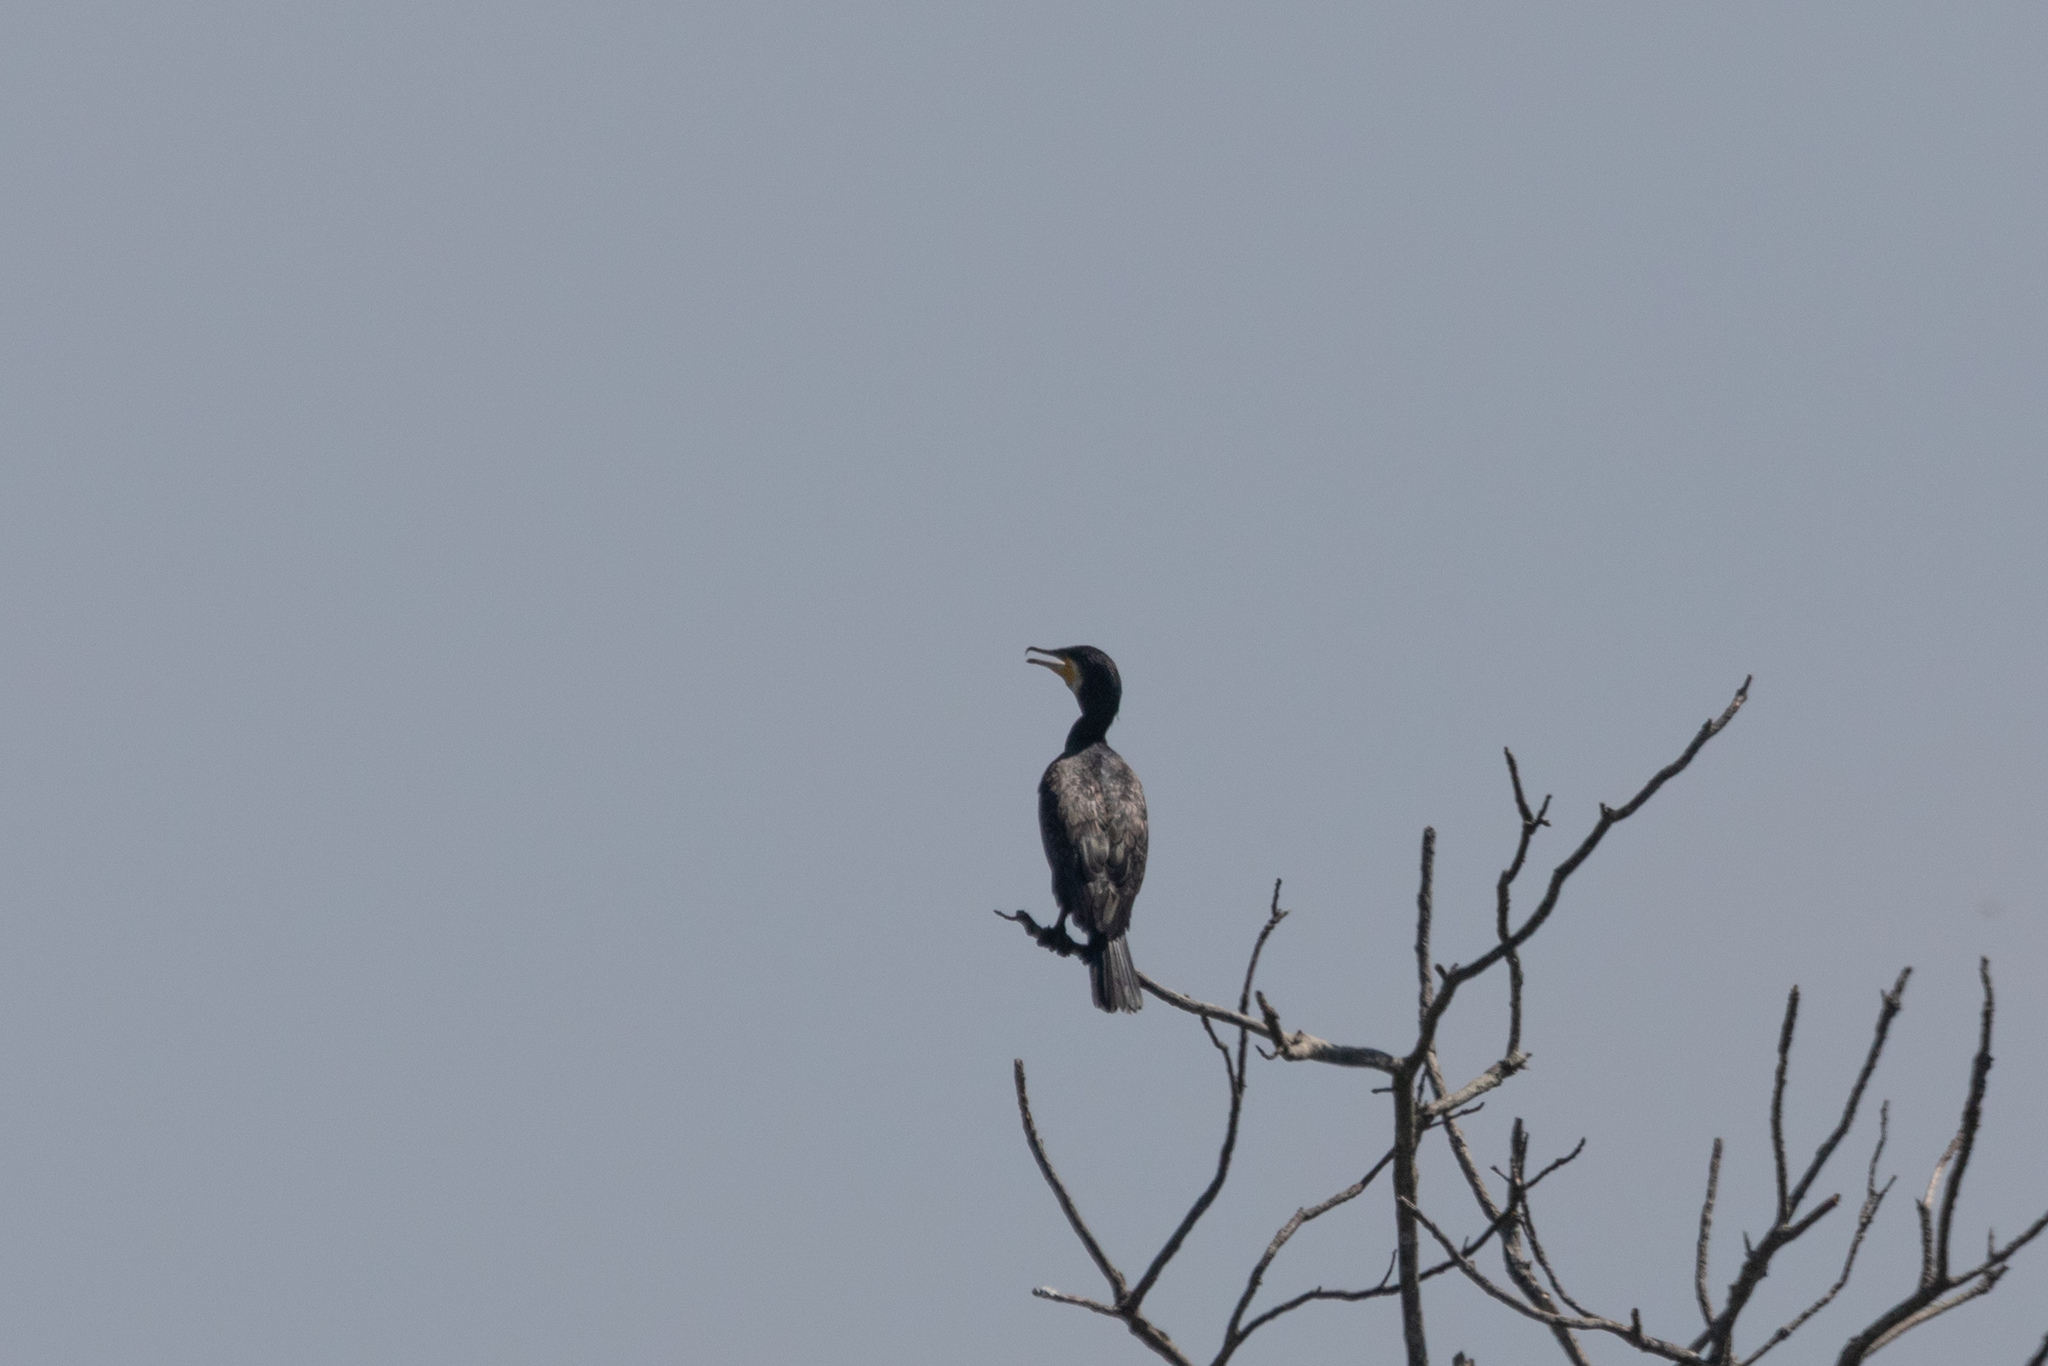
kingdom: Animalia
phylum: Chordata
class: Aves
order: Suliformes
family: Phalacrocoracidae
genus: Phalacrocorax
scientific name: Phalacrocorax carbo
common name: Great cormorant
